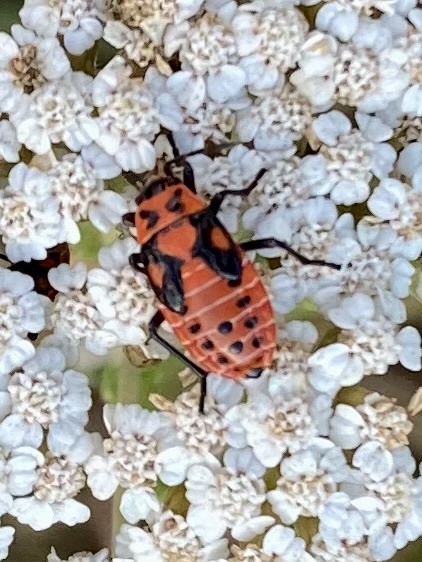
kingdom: Animalia
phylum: Arthropoda
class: Insecta
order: Hemiptera
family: Lygaeidae
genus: Spilostethus
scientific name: Spilostethus saxatilis
